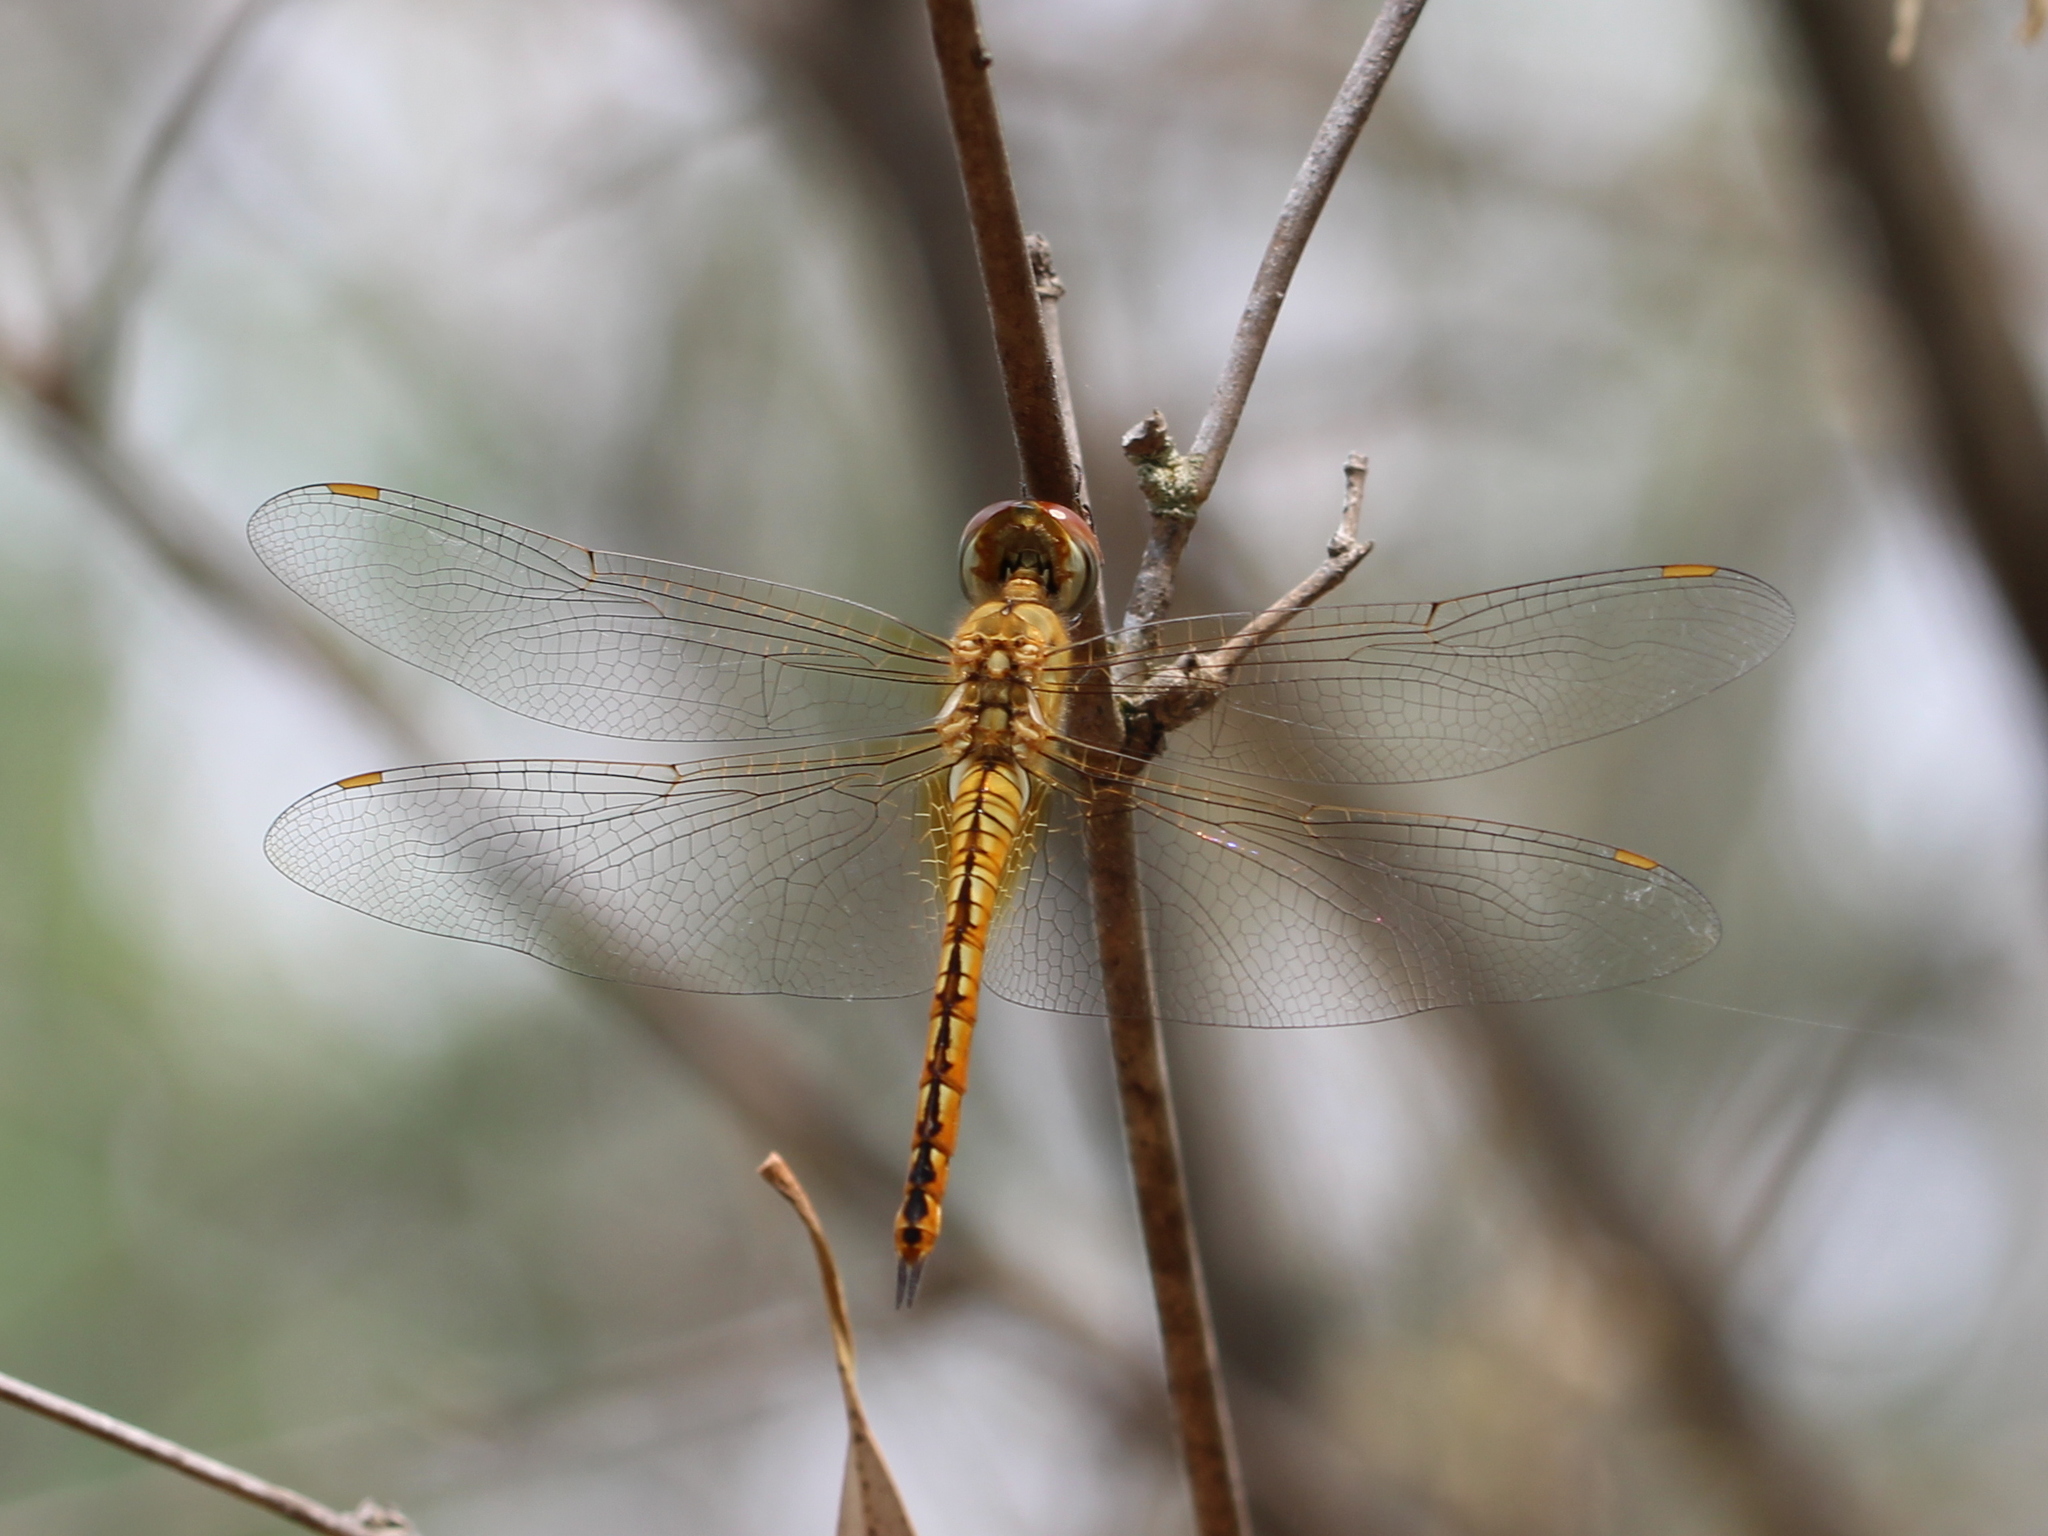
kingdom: Animalia
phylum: Arthropoda
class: Insecta
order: Odonata
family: Libellulidae
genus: Pantala
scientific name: Pantala flavescens
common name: Wandering glider
